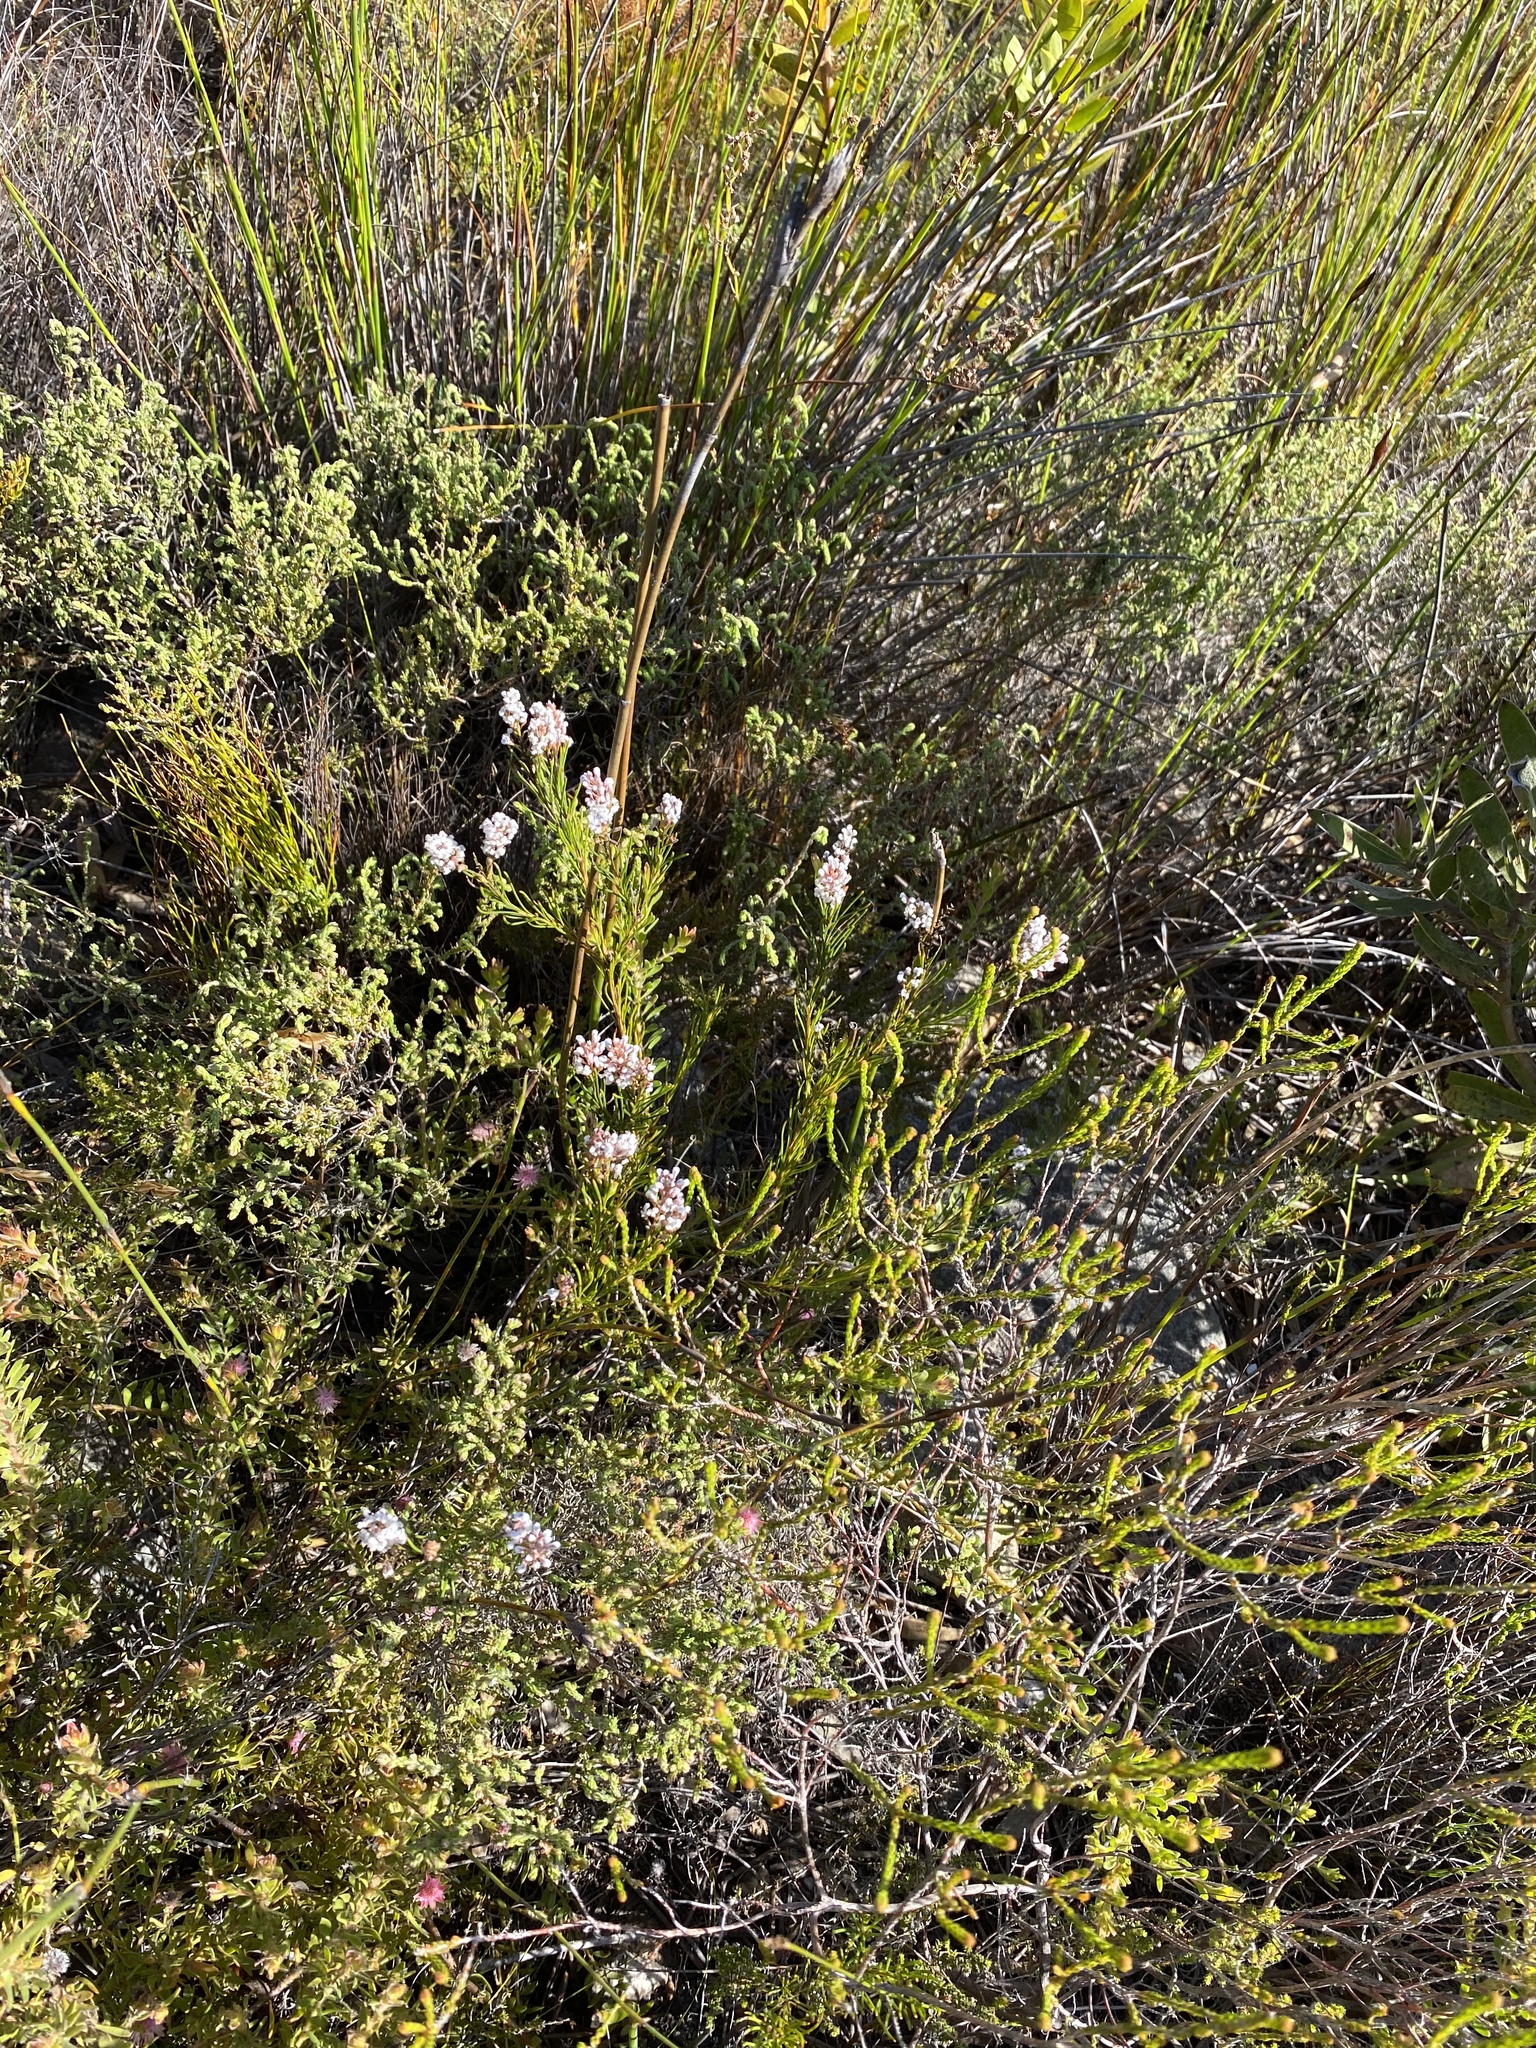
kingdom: Plantae
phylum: Tracheophyta
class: Magnoliopsida
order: Proteales
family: Proteaceae
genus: Spatalla
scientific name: Spatalla racemosa
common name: Lax-stalked spoon
